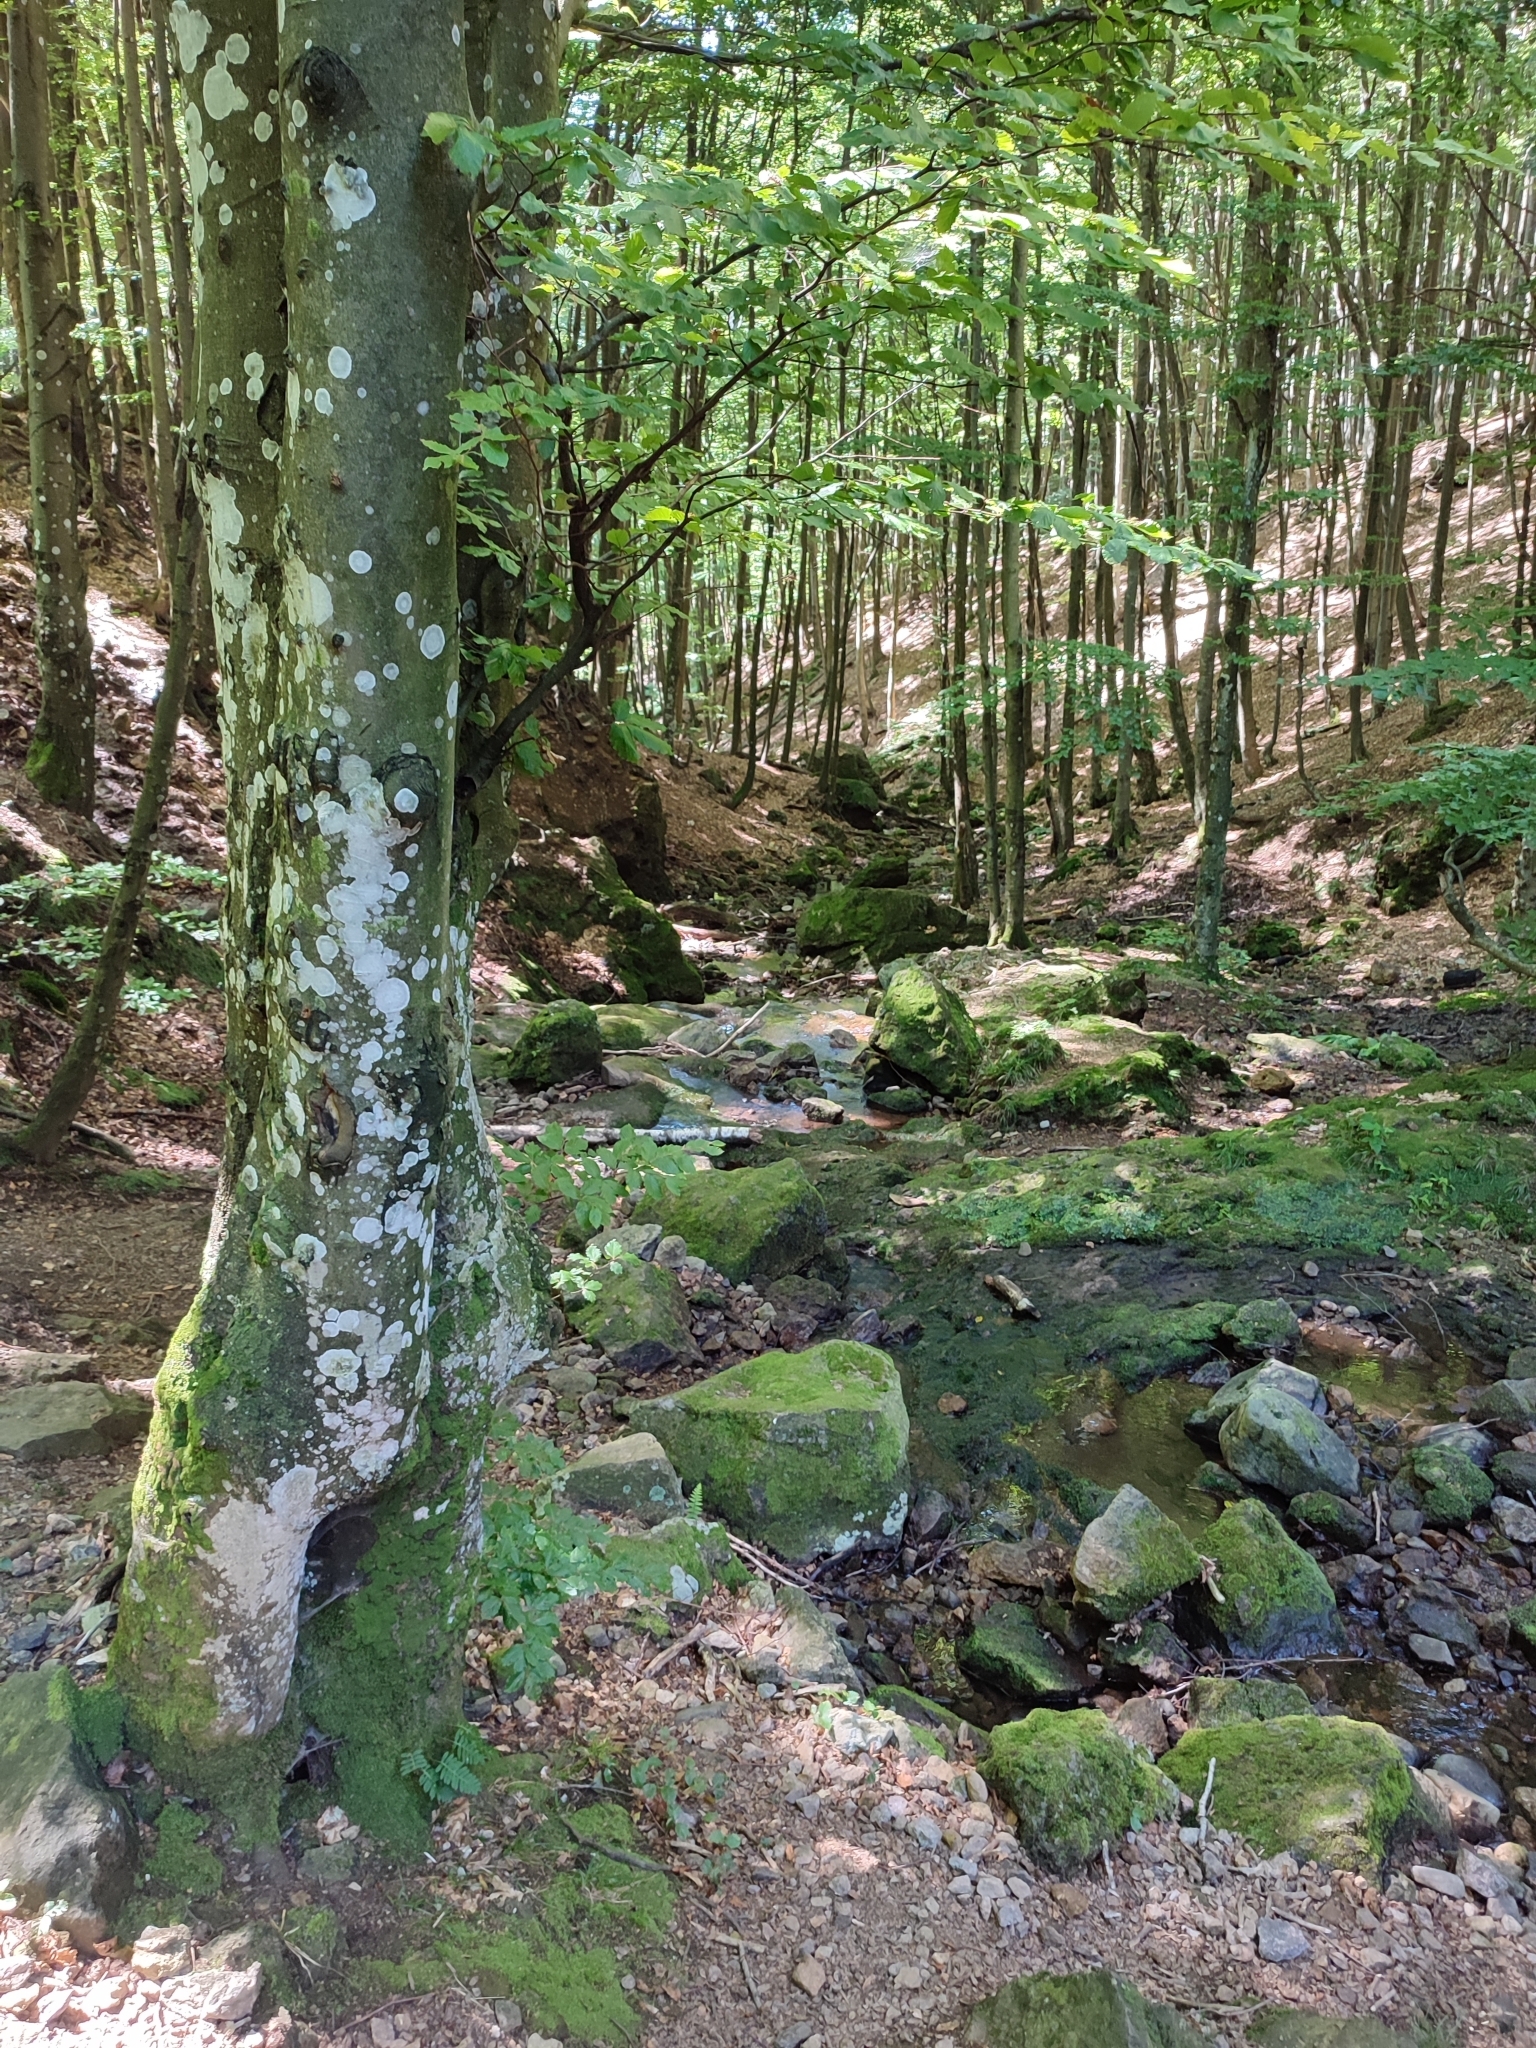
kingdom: Plantae
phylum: Tracheophyta
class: Magnoliopsida
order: Fagales
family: Fagaceae
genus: Fagus
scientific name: Fagus sylvatica
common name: Beech
